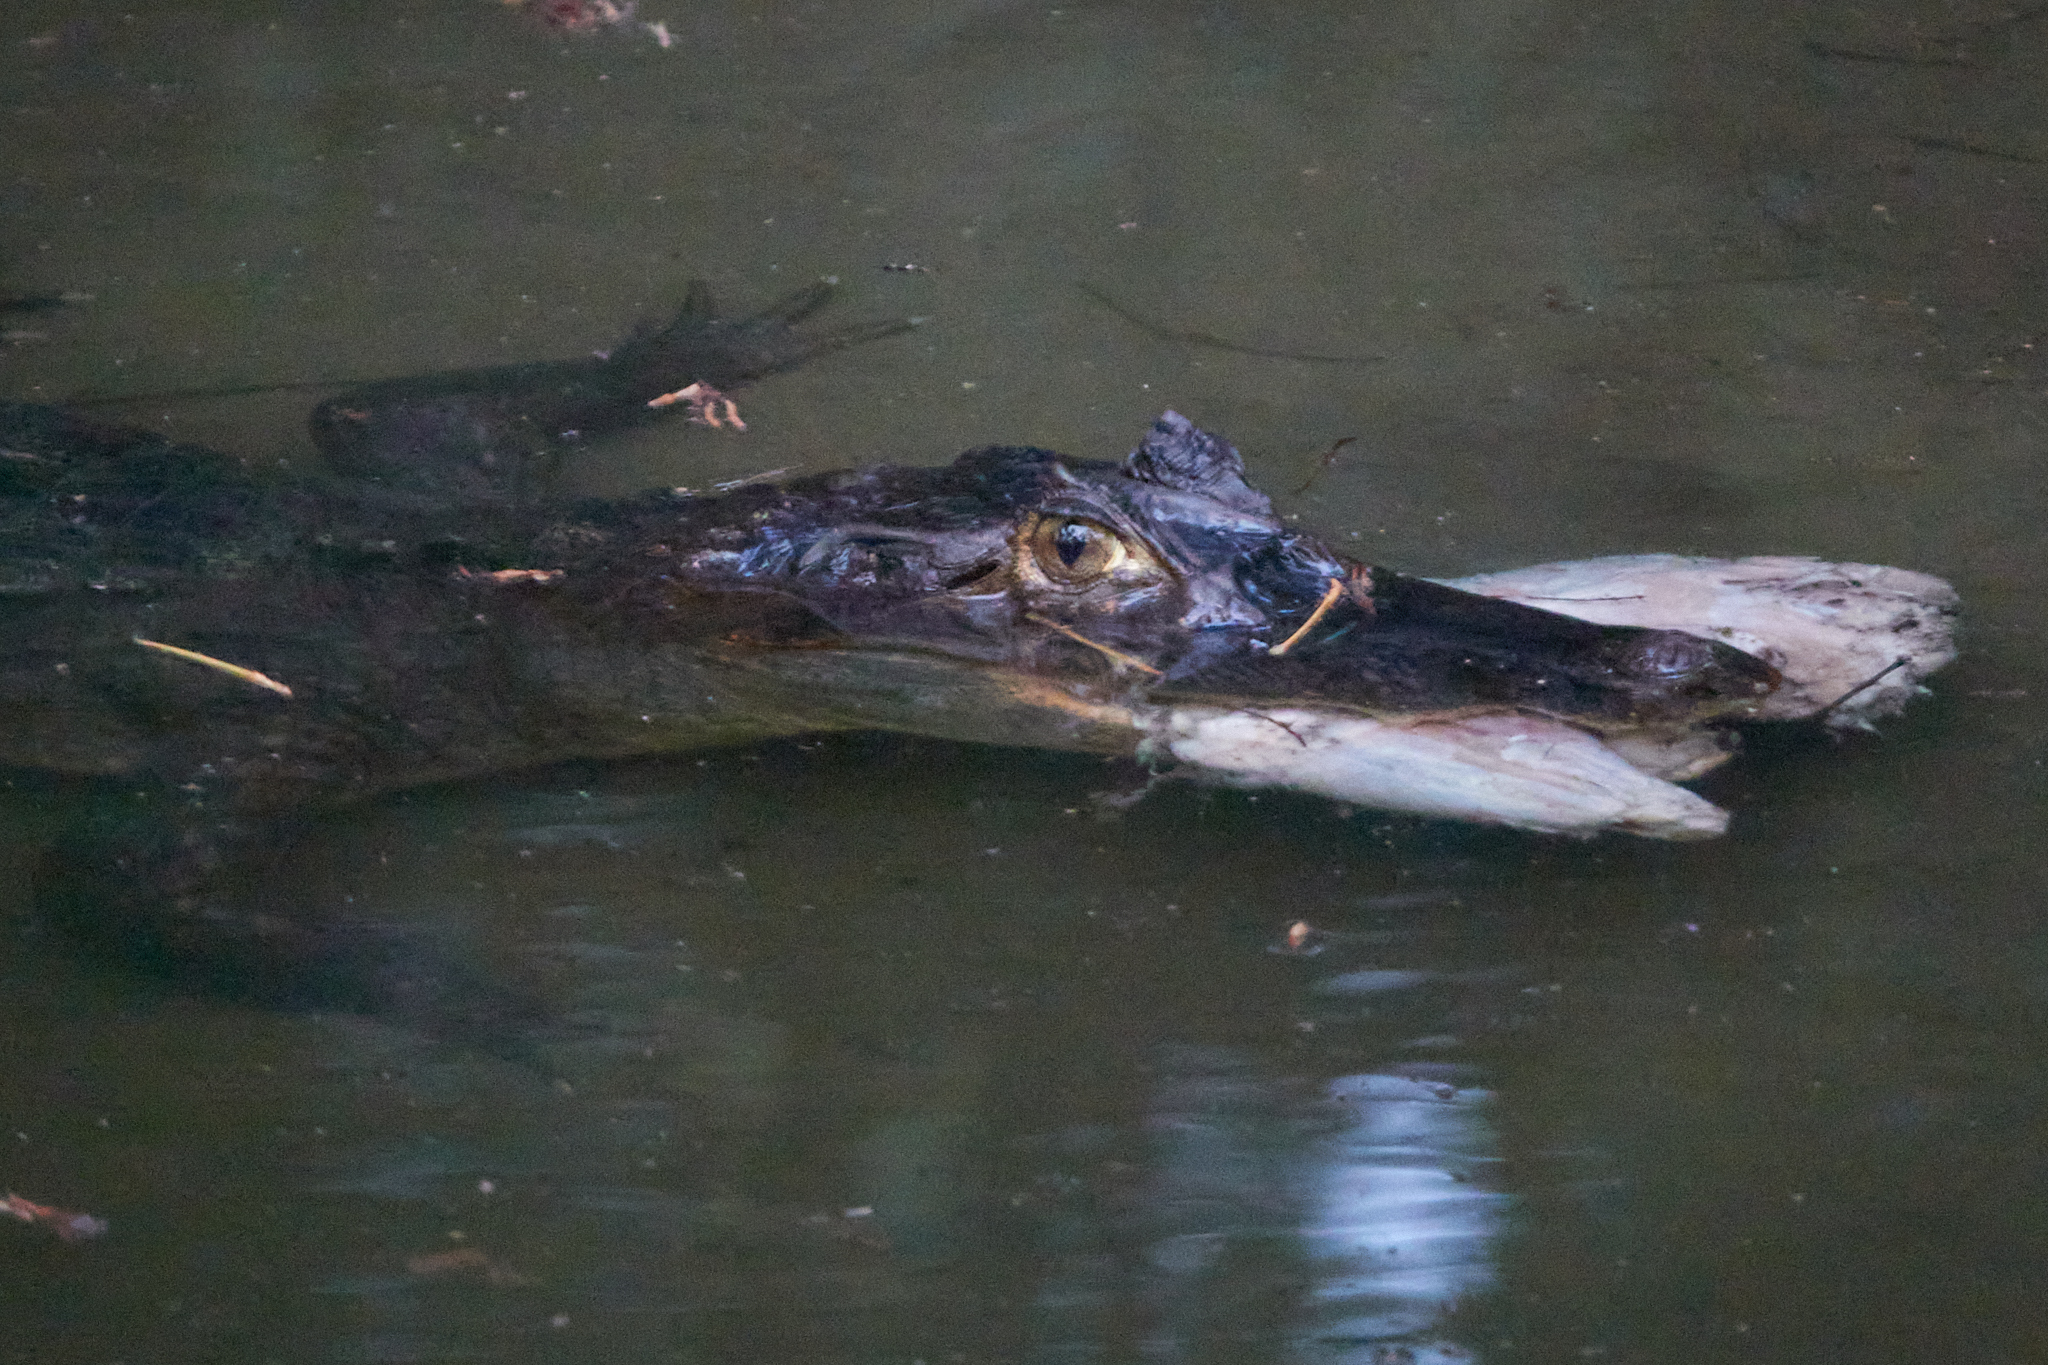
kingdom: Animalia
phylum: Chordata
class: Crocodylia
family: Alligatoridae
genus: Caiman
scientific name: Caiman crocodilus
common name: Common caiman
